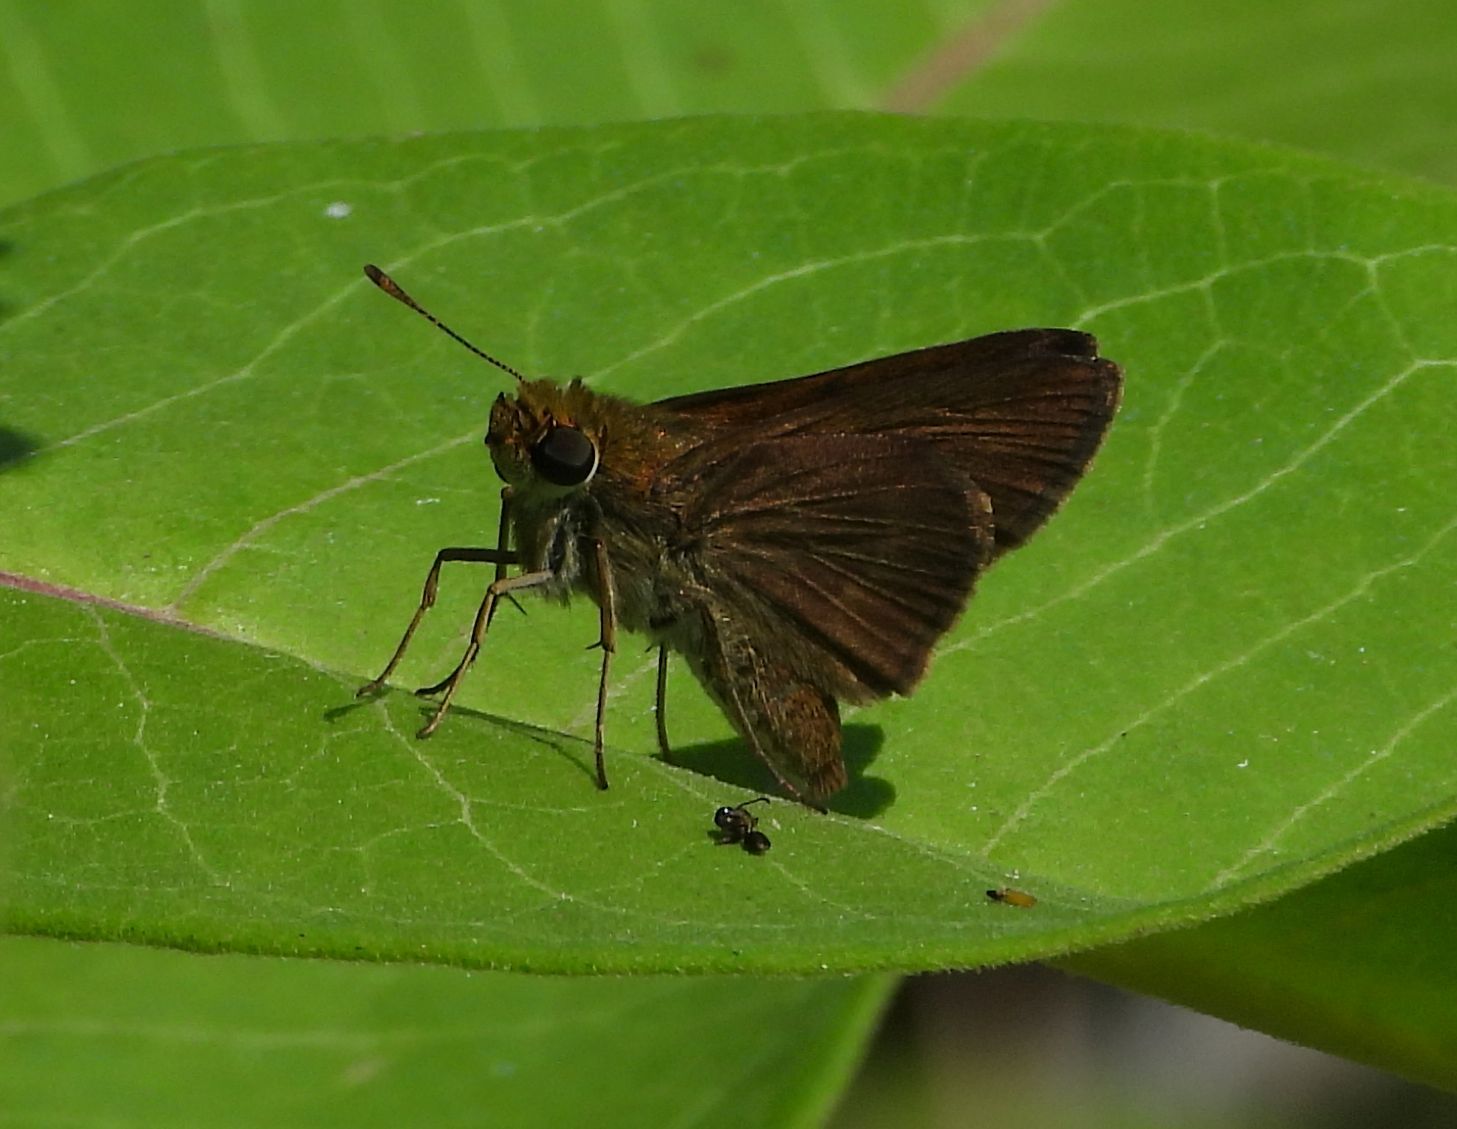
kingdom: Animalia
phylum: Arthropoda
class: Insecta
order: Lepidoptera
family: Hesperiidae
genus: Euphyes
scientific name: Euphyes vestris
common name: Dun skipper
